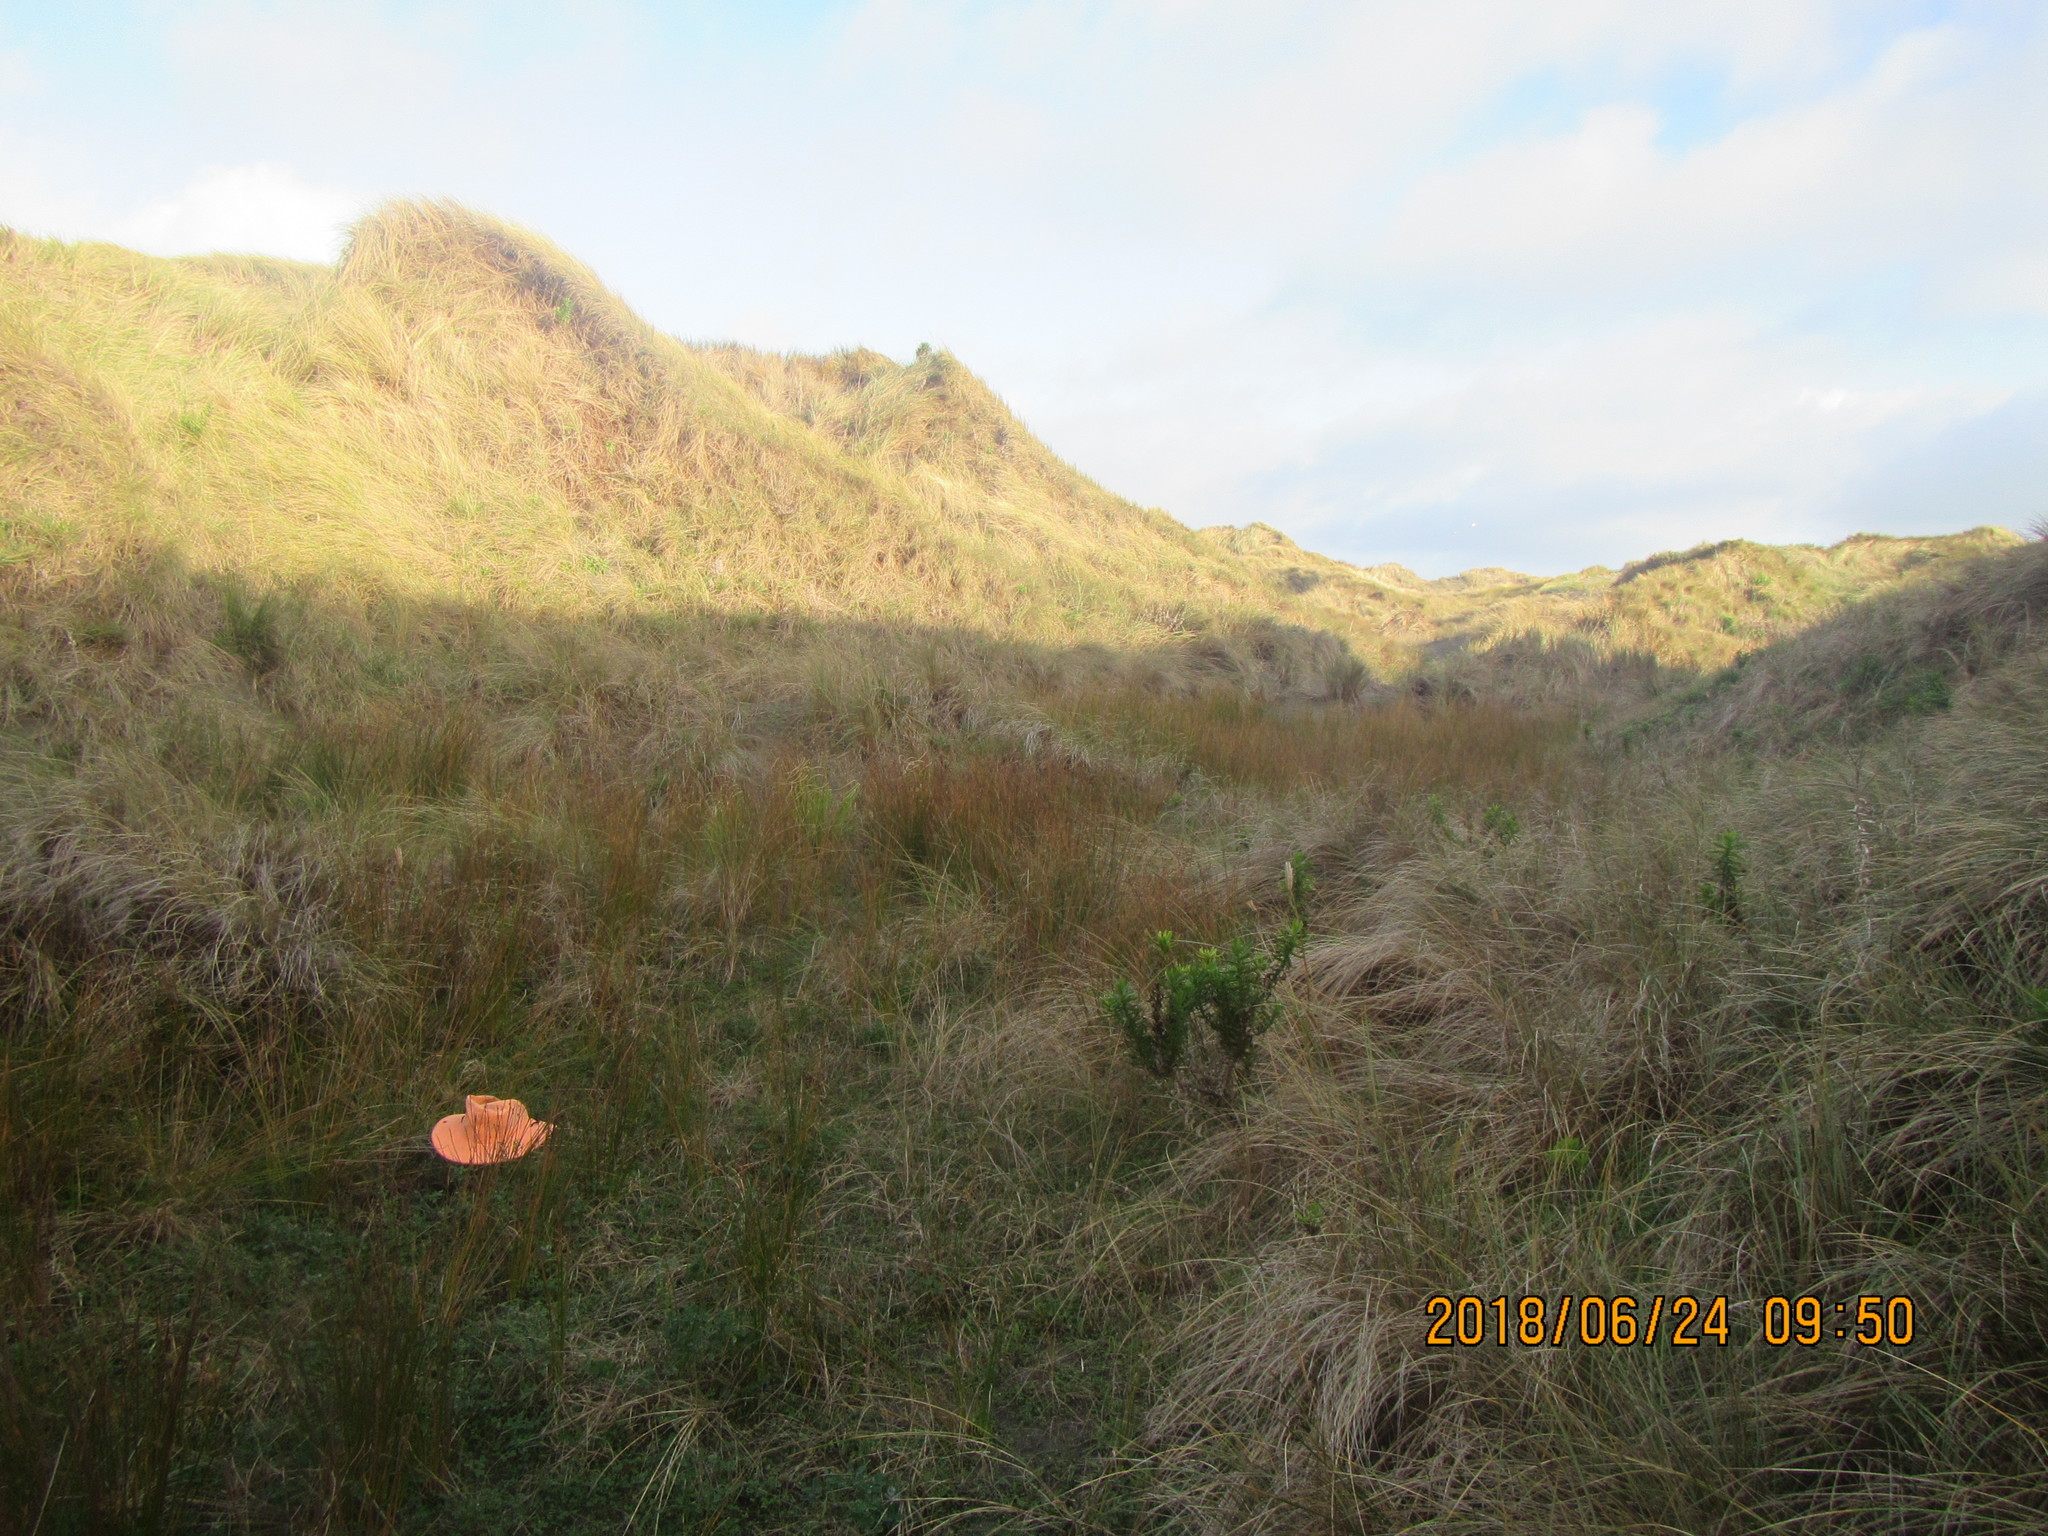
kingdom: Plantae
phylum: Tracheophyta
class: Magnoliopsida
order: Fabales
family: Fabaceae
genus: Melilotus
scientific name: Melilotus indicus
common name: Small melilot
